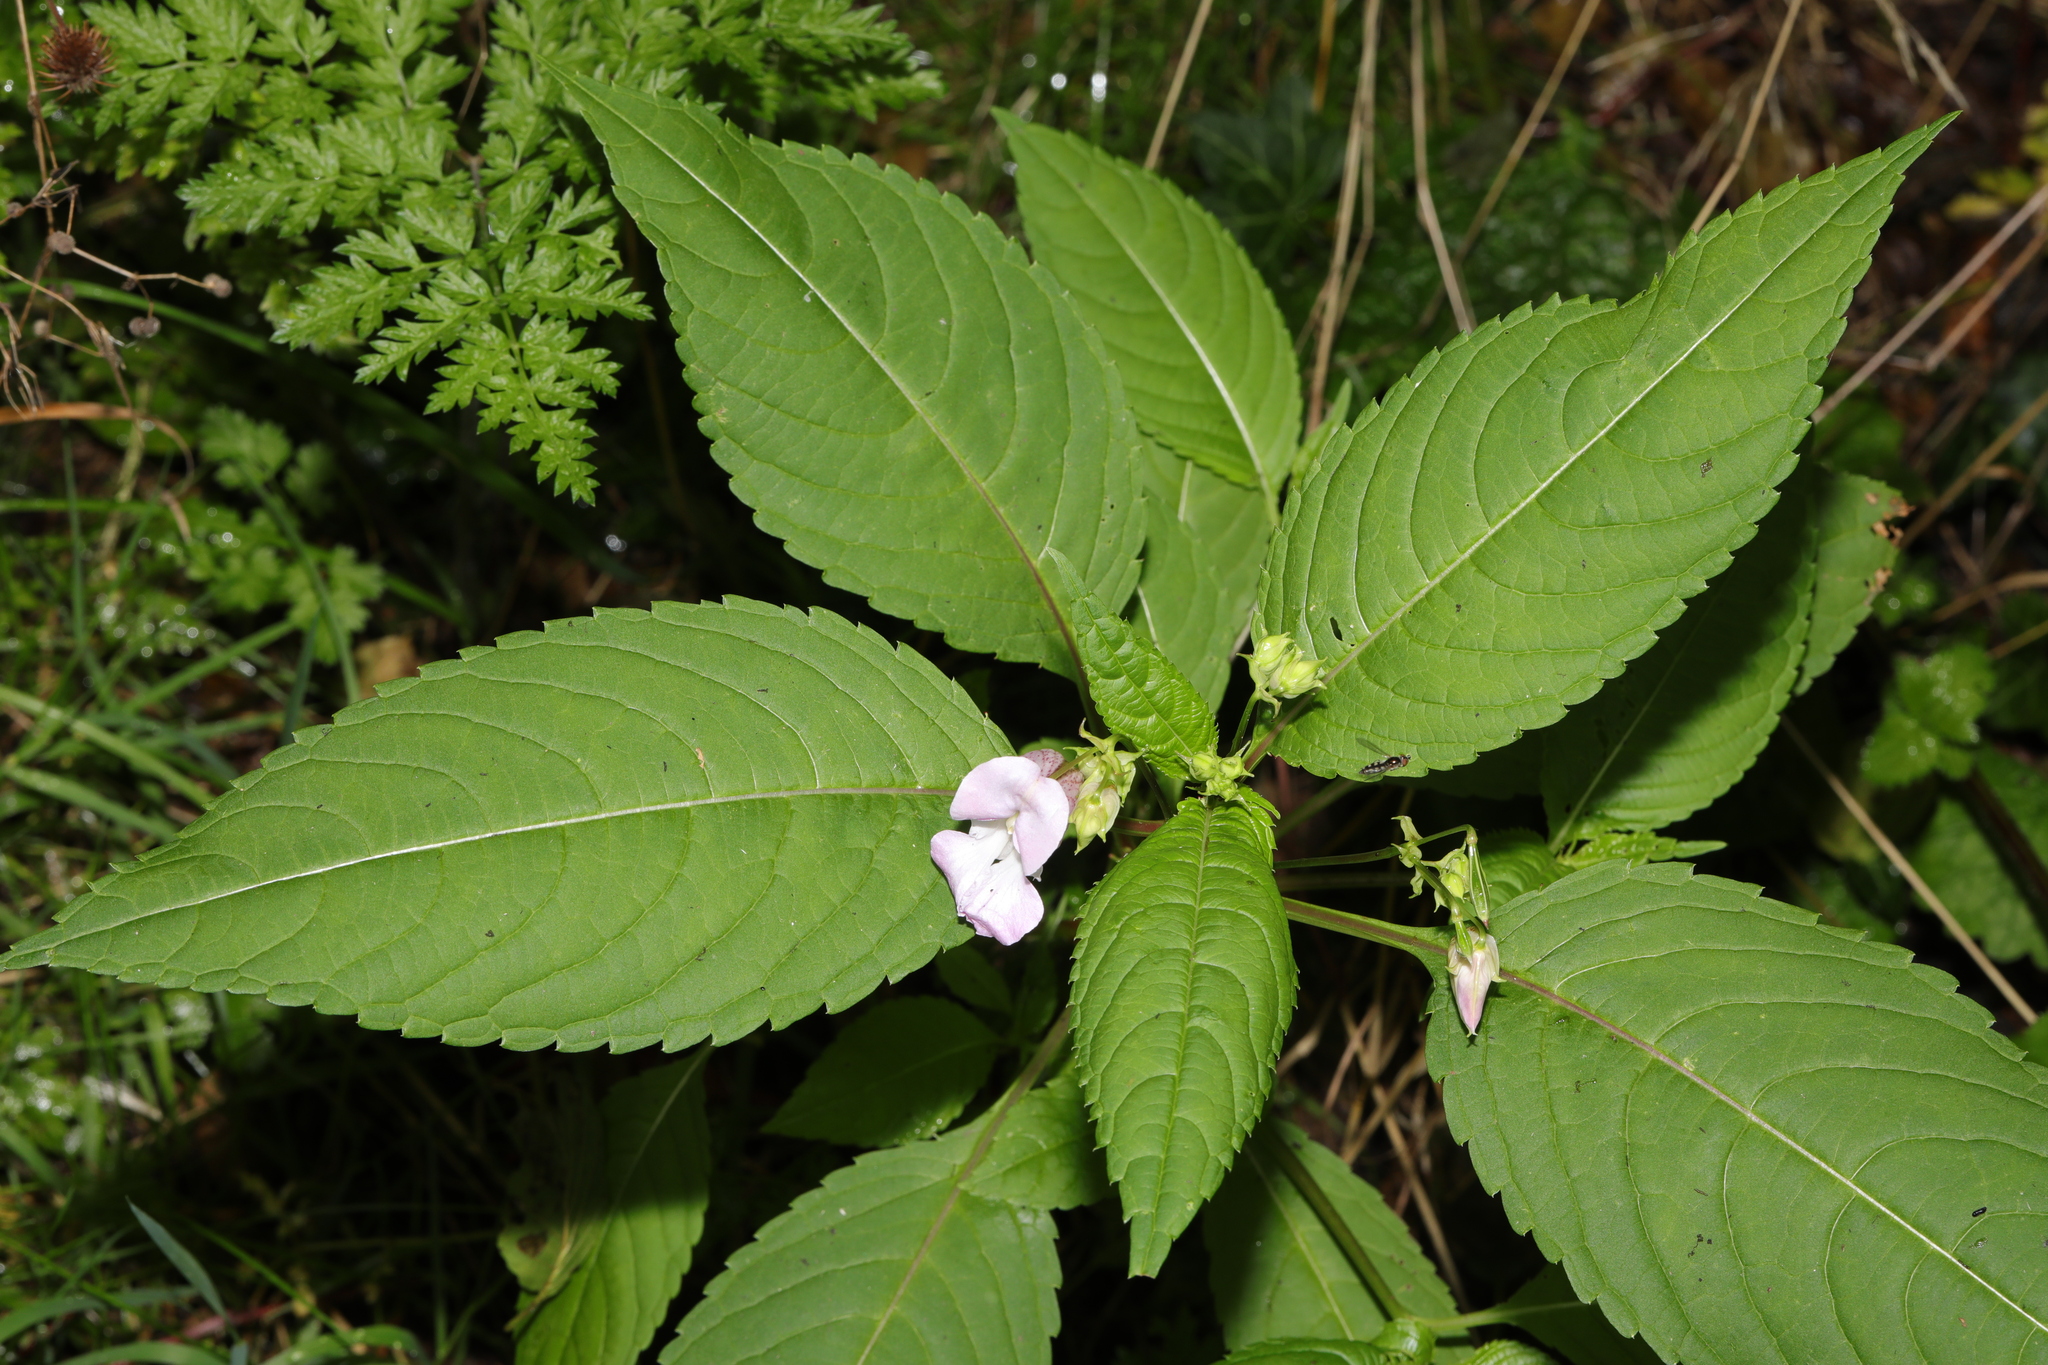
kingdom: Plantae
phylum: Tracheophyta
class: Magnoliopsida
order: Ericales
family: Balsaminaceae
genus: Impatiens
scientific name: Impatiens glandulifera
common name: Himalayan balsam
